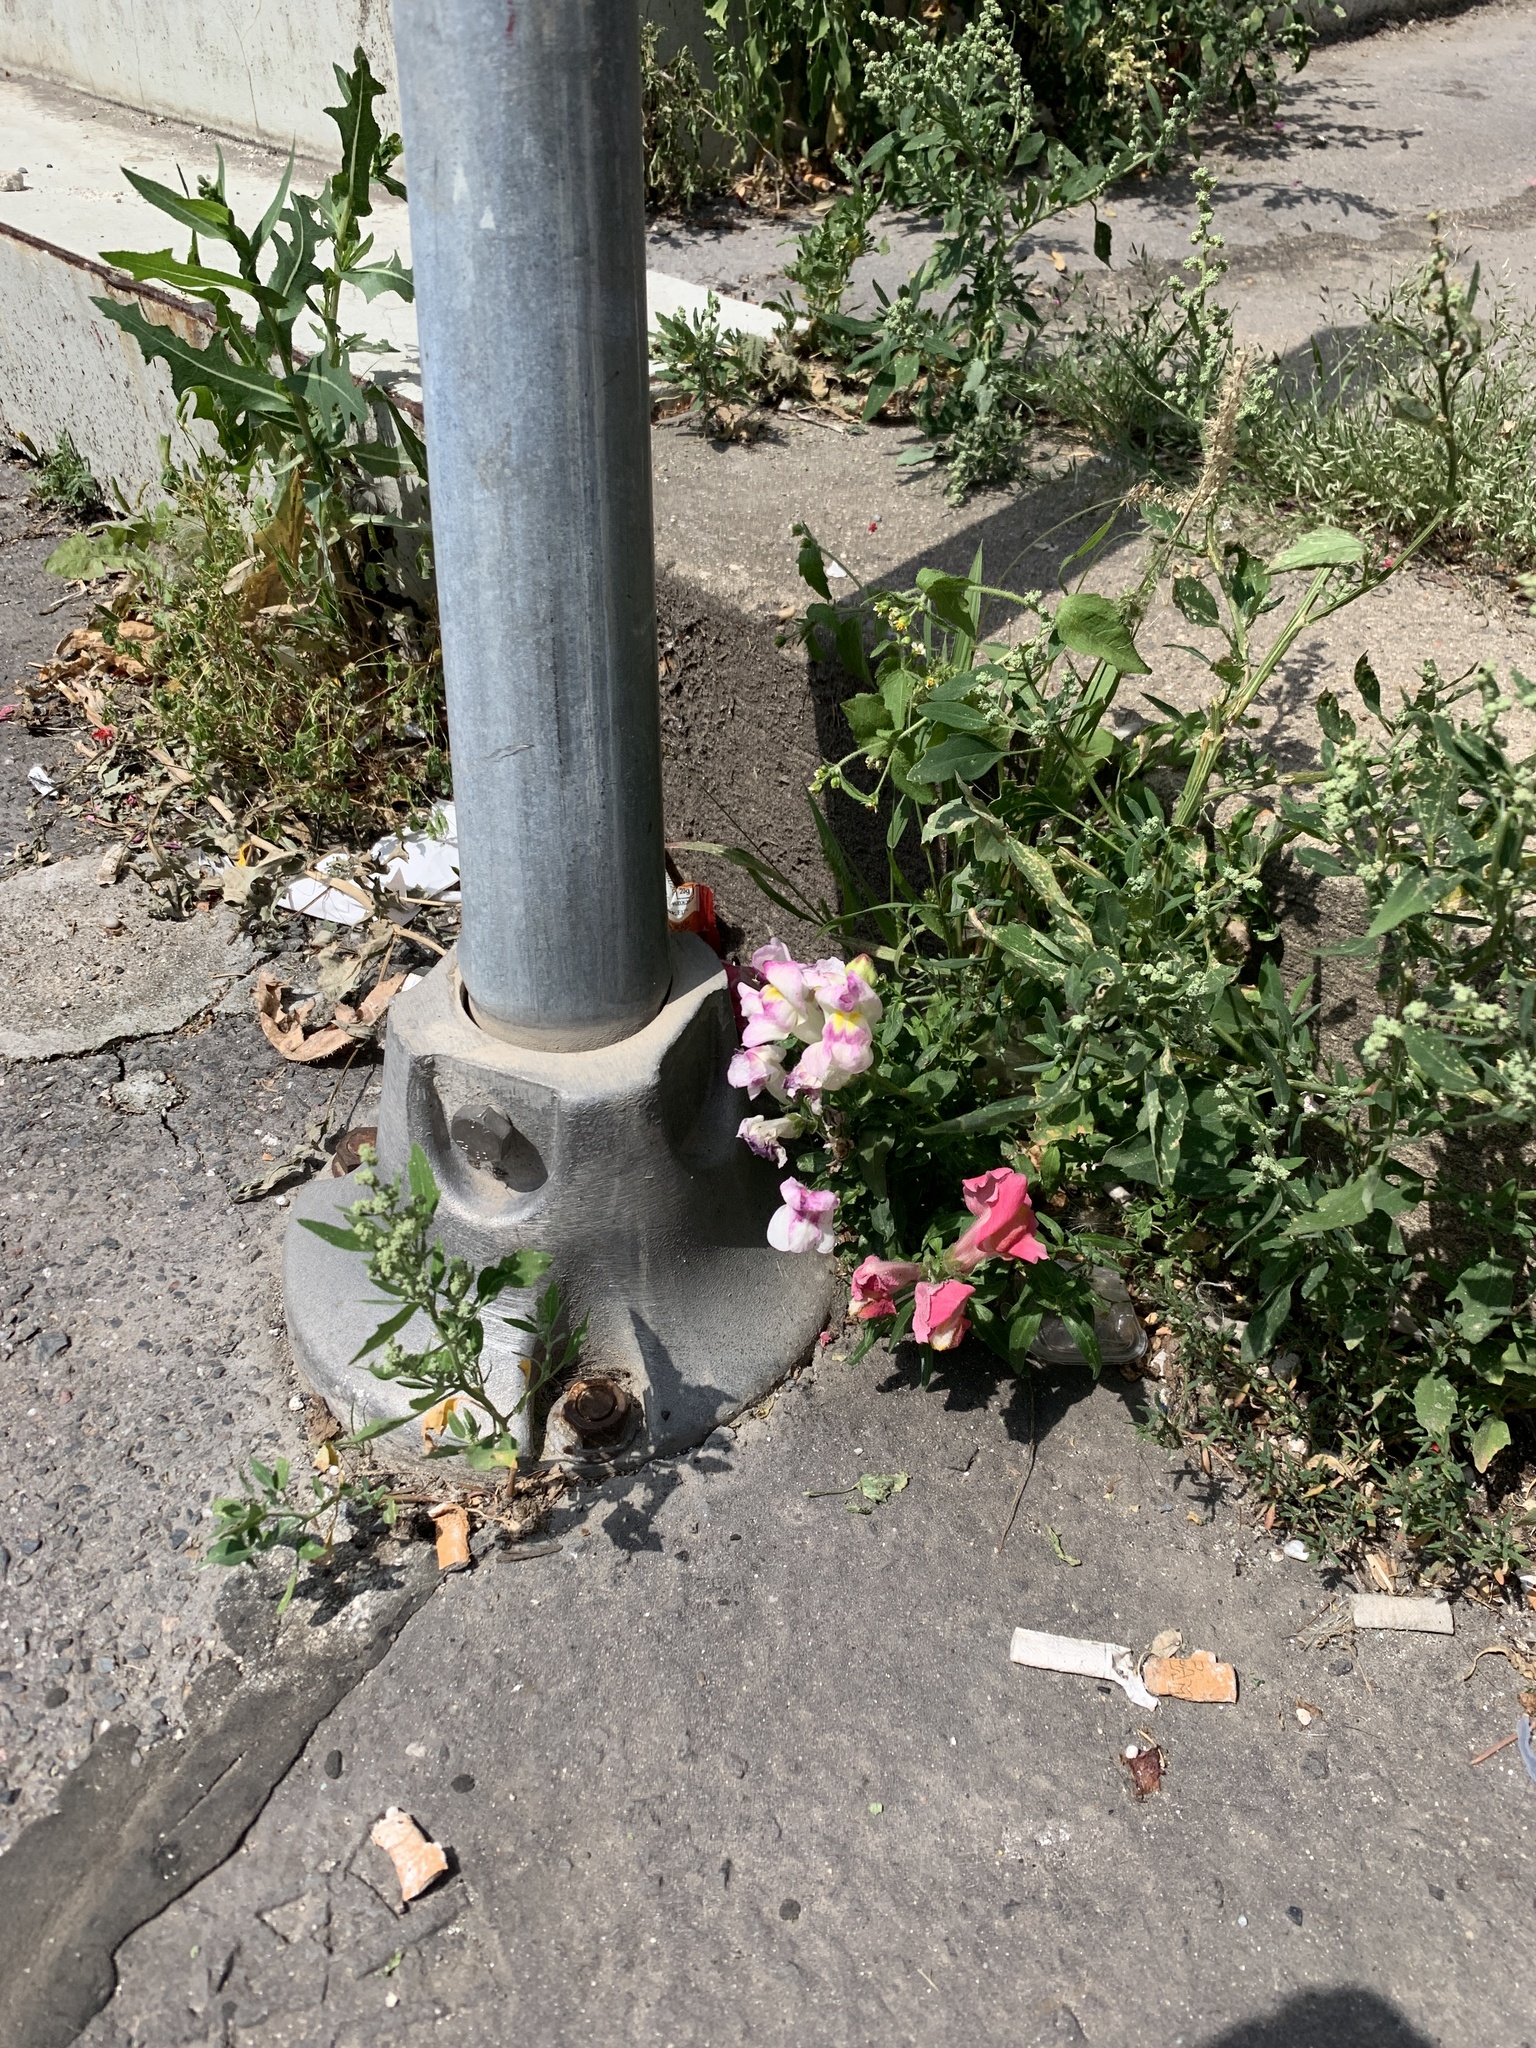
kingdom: Plantae
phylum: Tracheophyta
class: Magnoliopsida
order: Lamiales
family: Plantaginaceae
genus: Antirrhinum
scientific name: Antirrhinum majus
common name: Snapdragon
